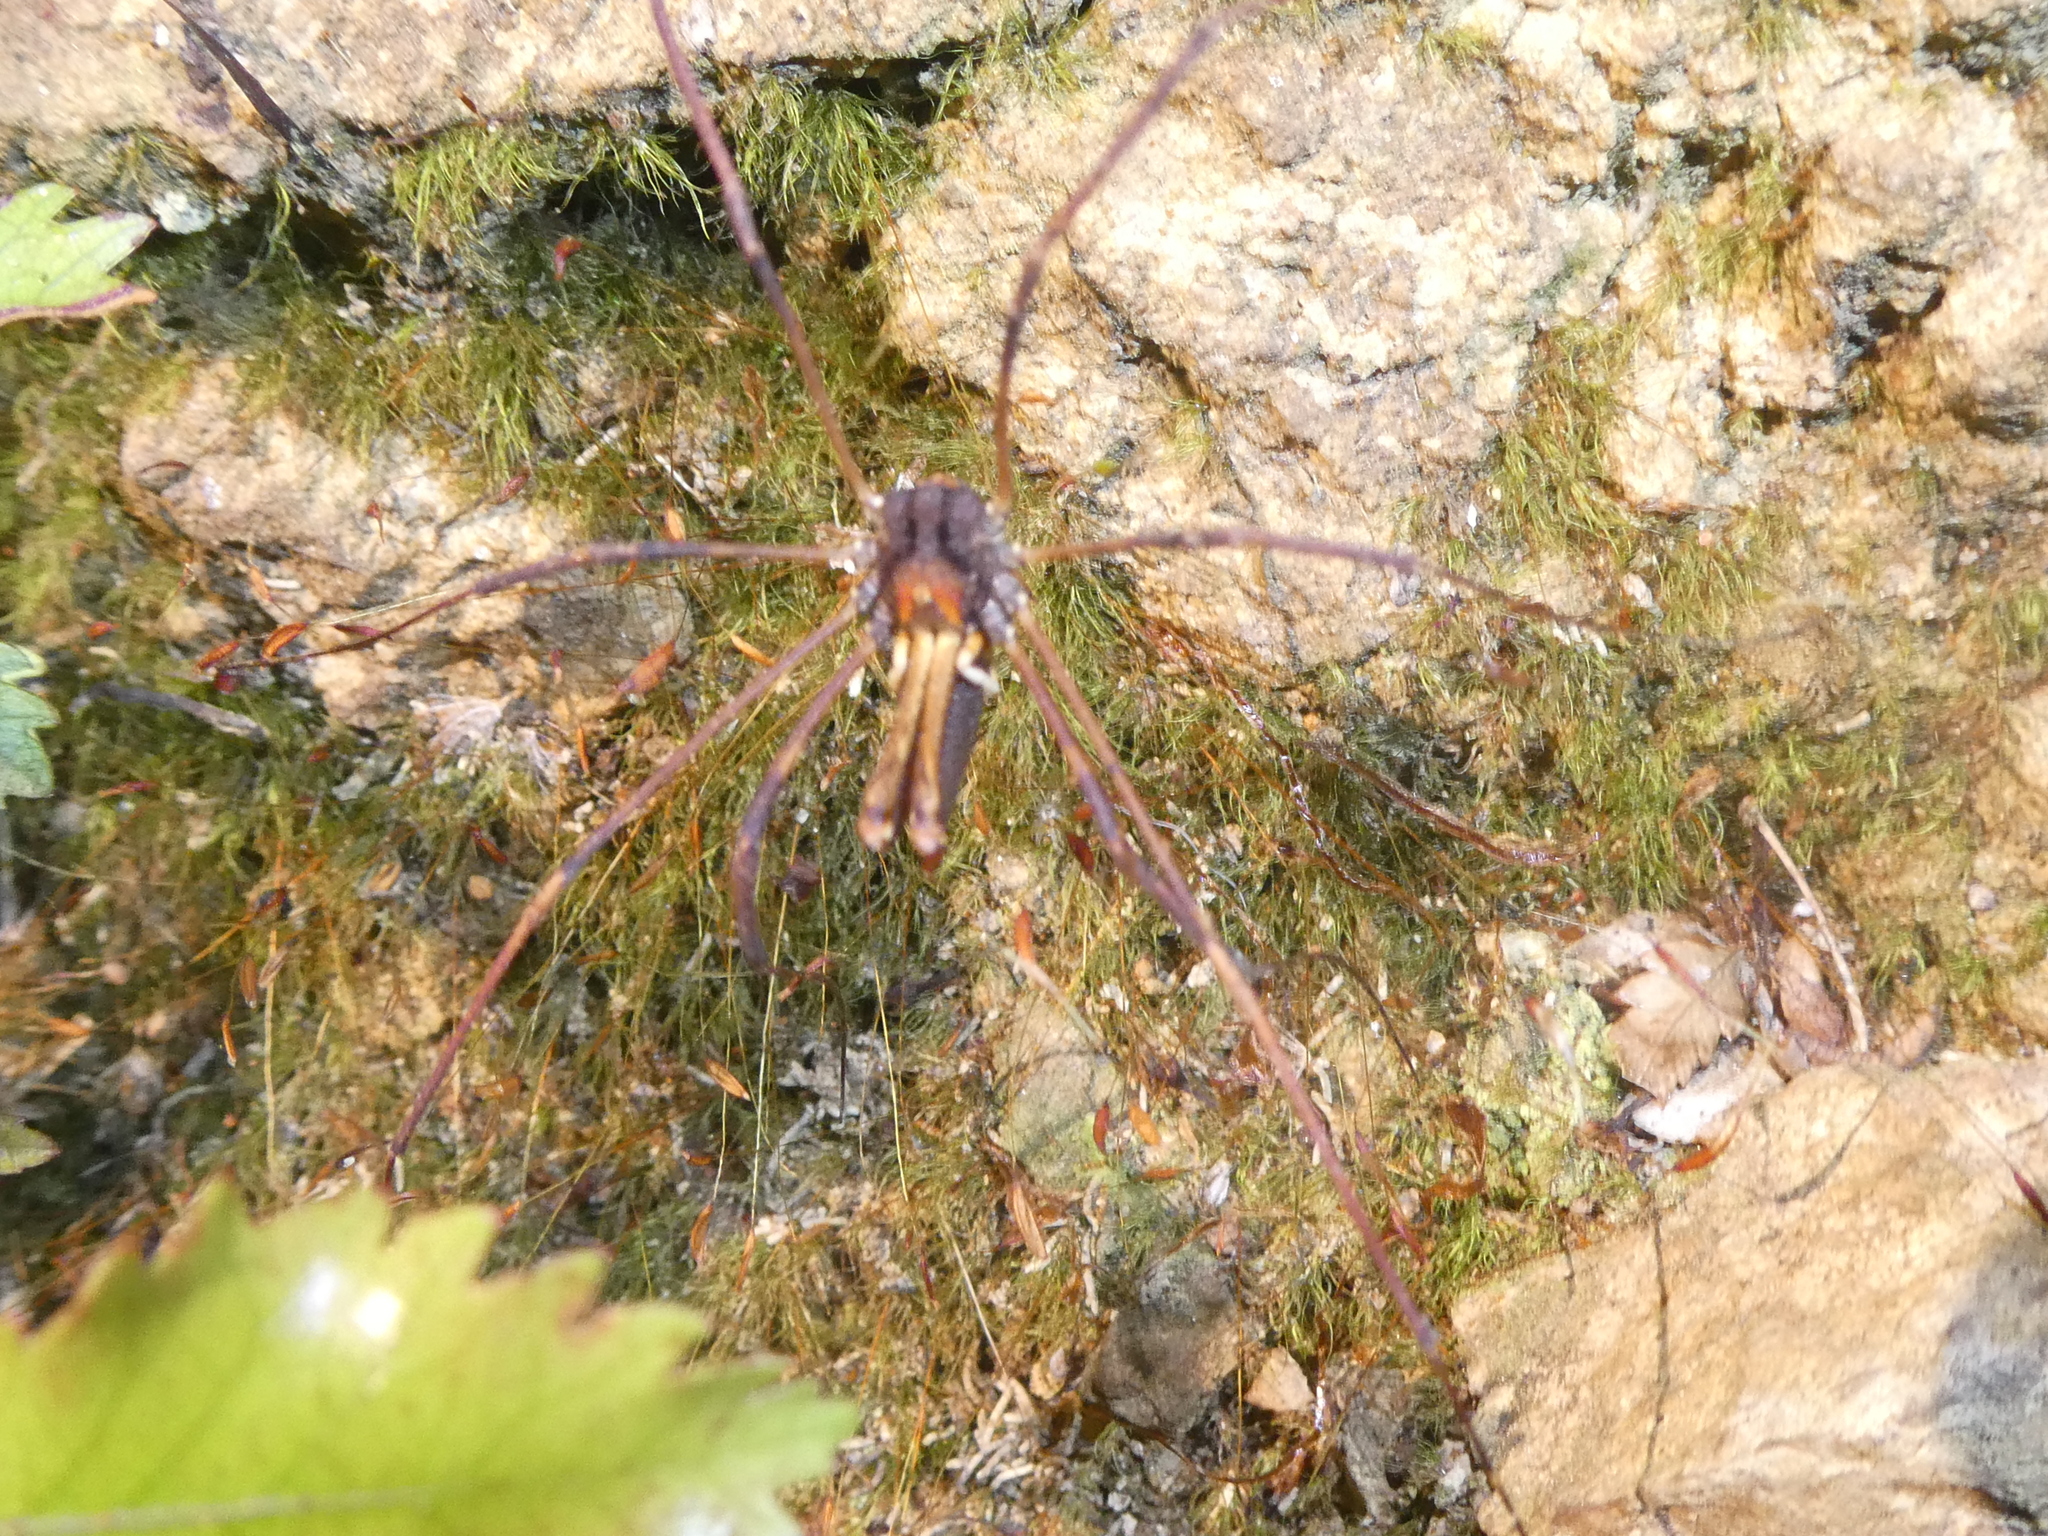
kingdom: Animalia
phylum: Arthropoda
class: Arachnida
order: Opiliones
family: Neopilionidae
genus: Forsteropsalis
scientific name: Forsteropsalis inconstans
